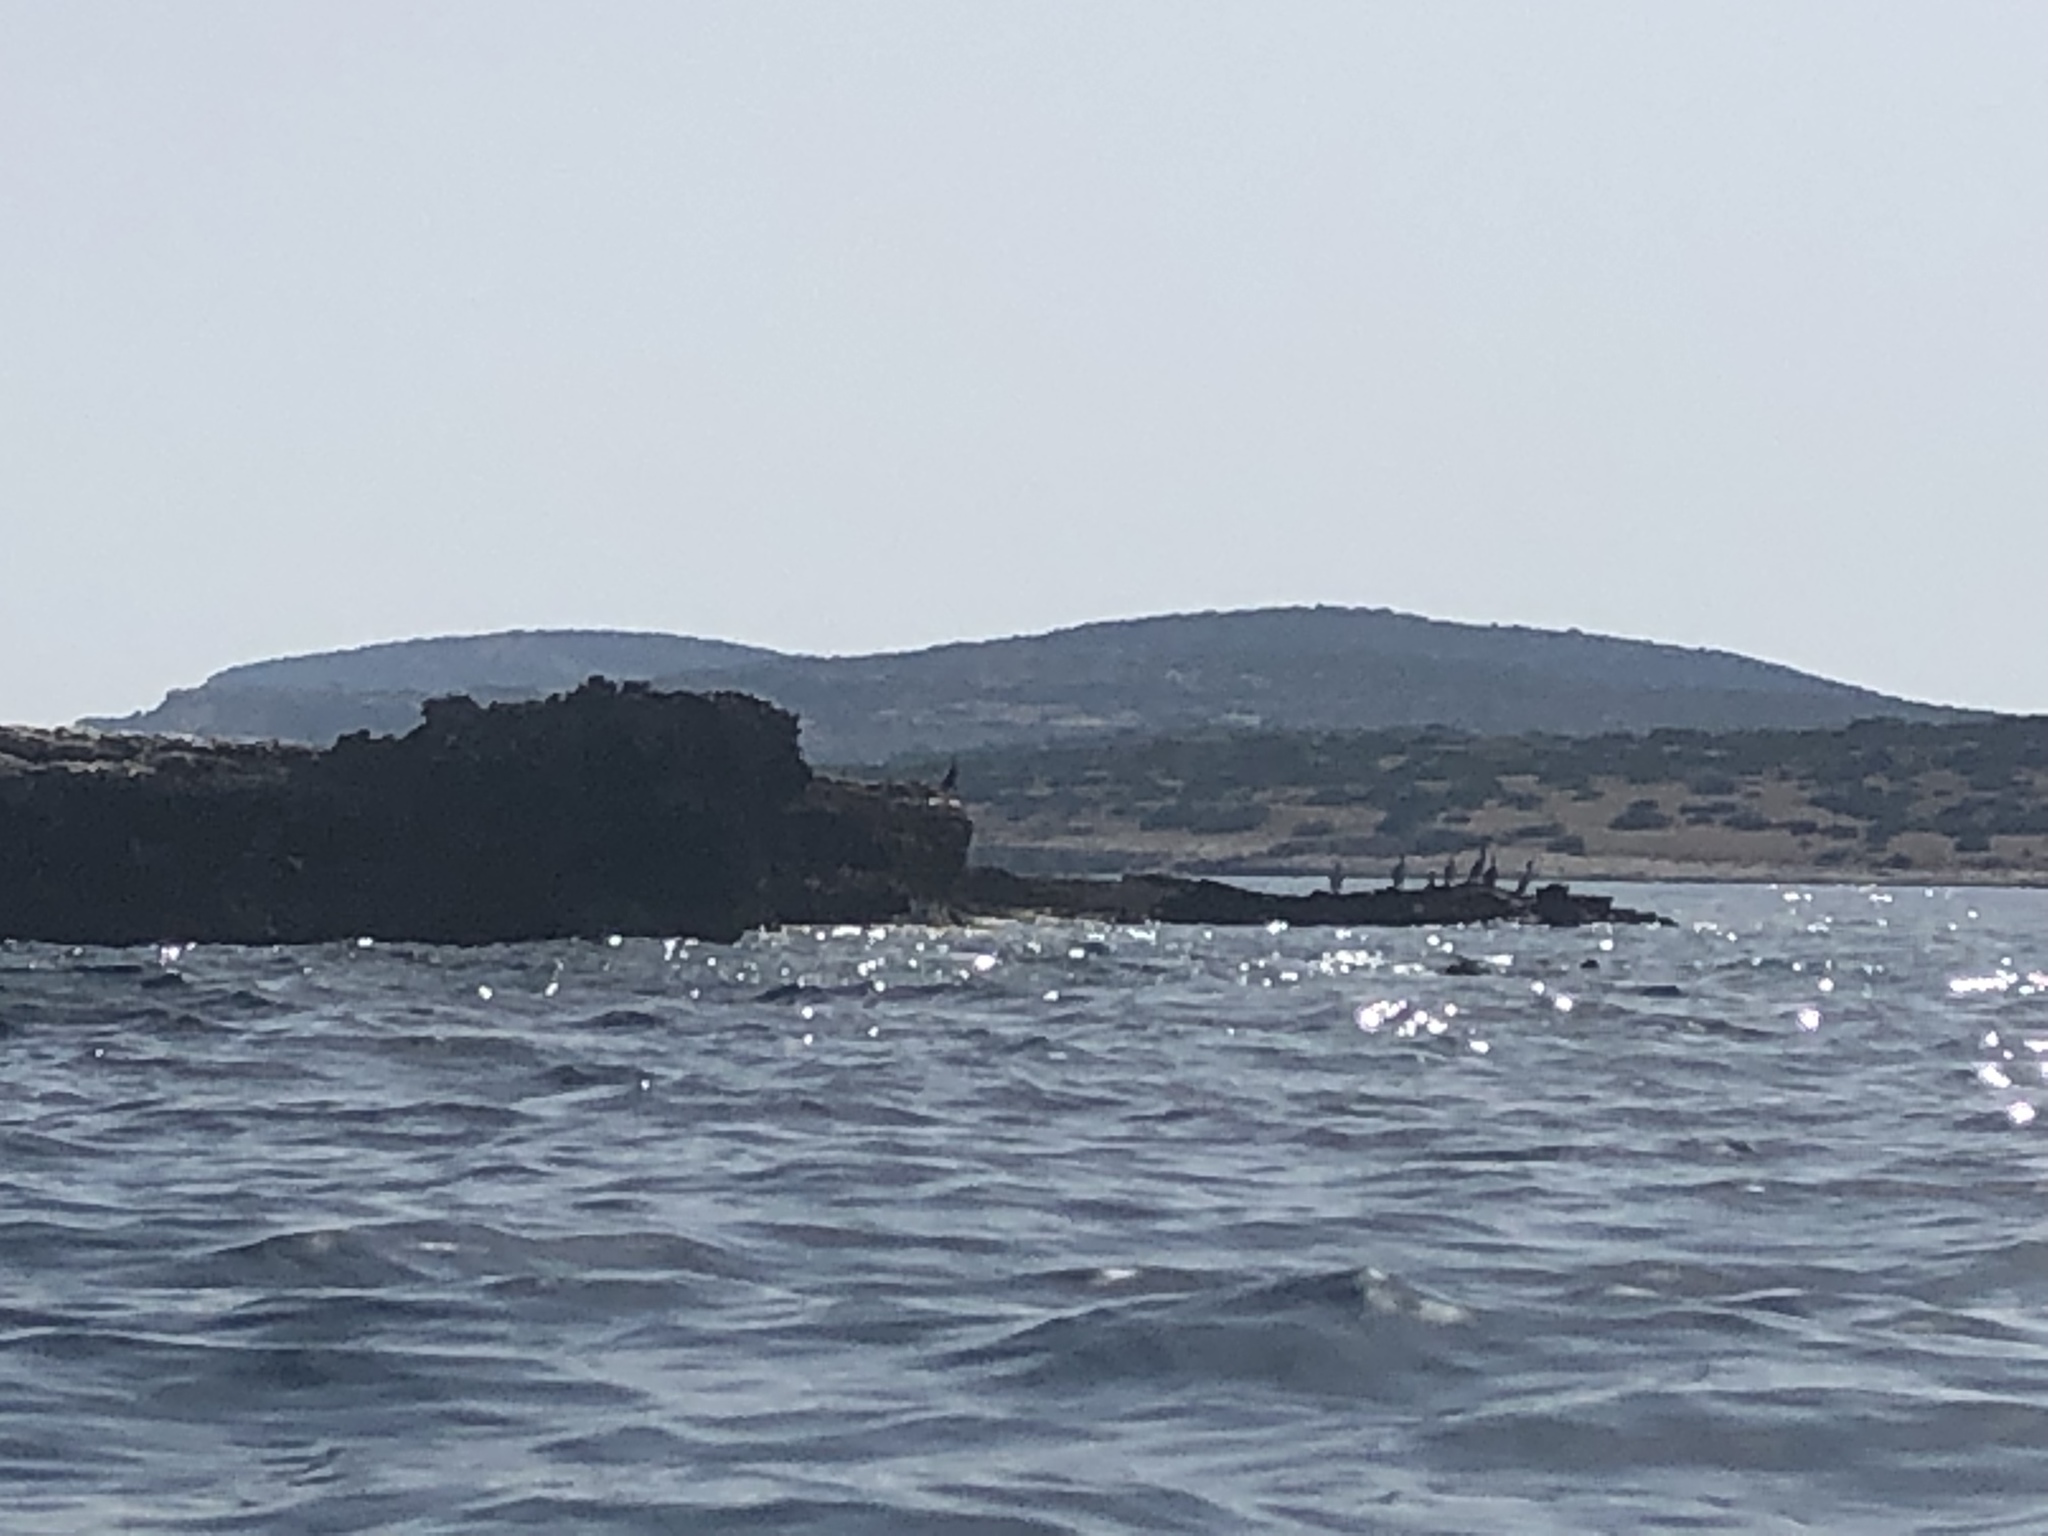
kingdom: Animalia
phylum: Chordata
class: Aves
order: Suliformes
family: Phalacrocoracidae
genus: Phalacrocorax
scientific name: Phalacrocorax aristotelis
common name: European shag
